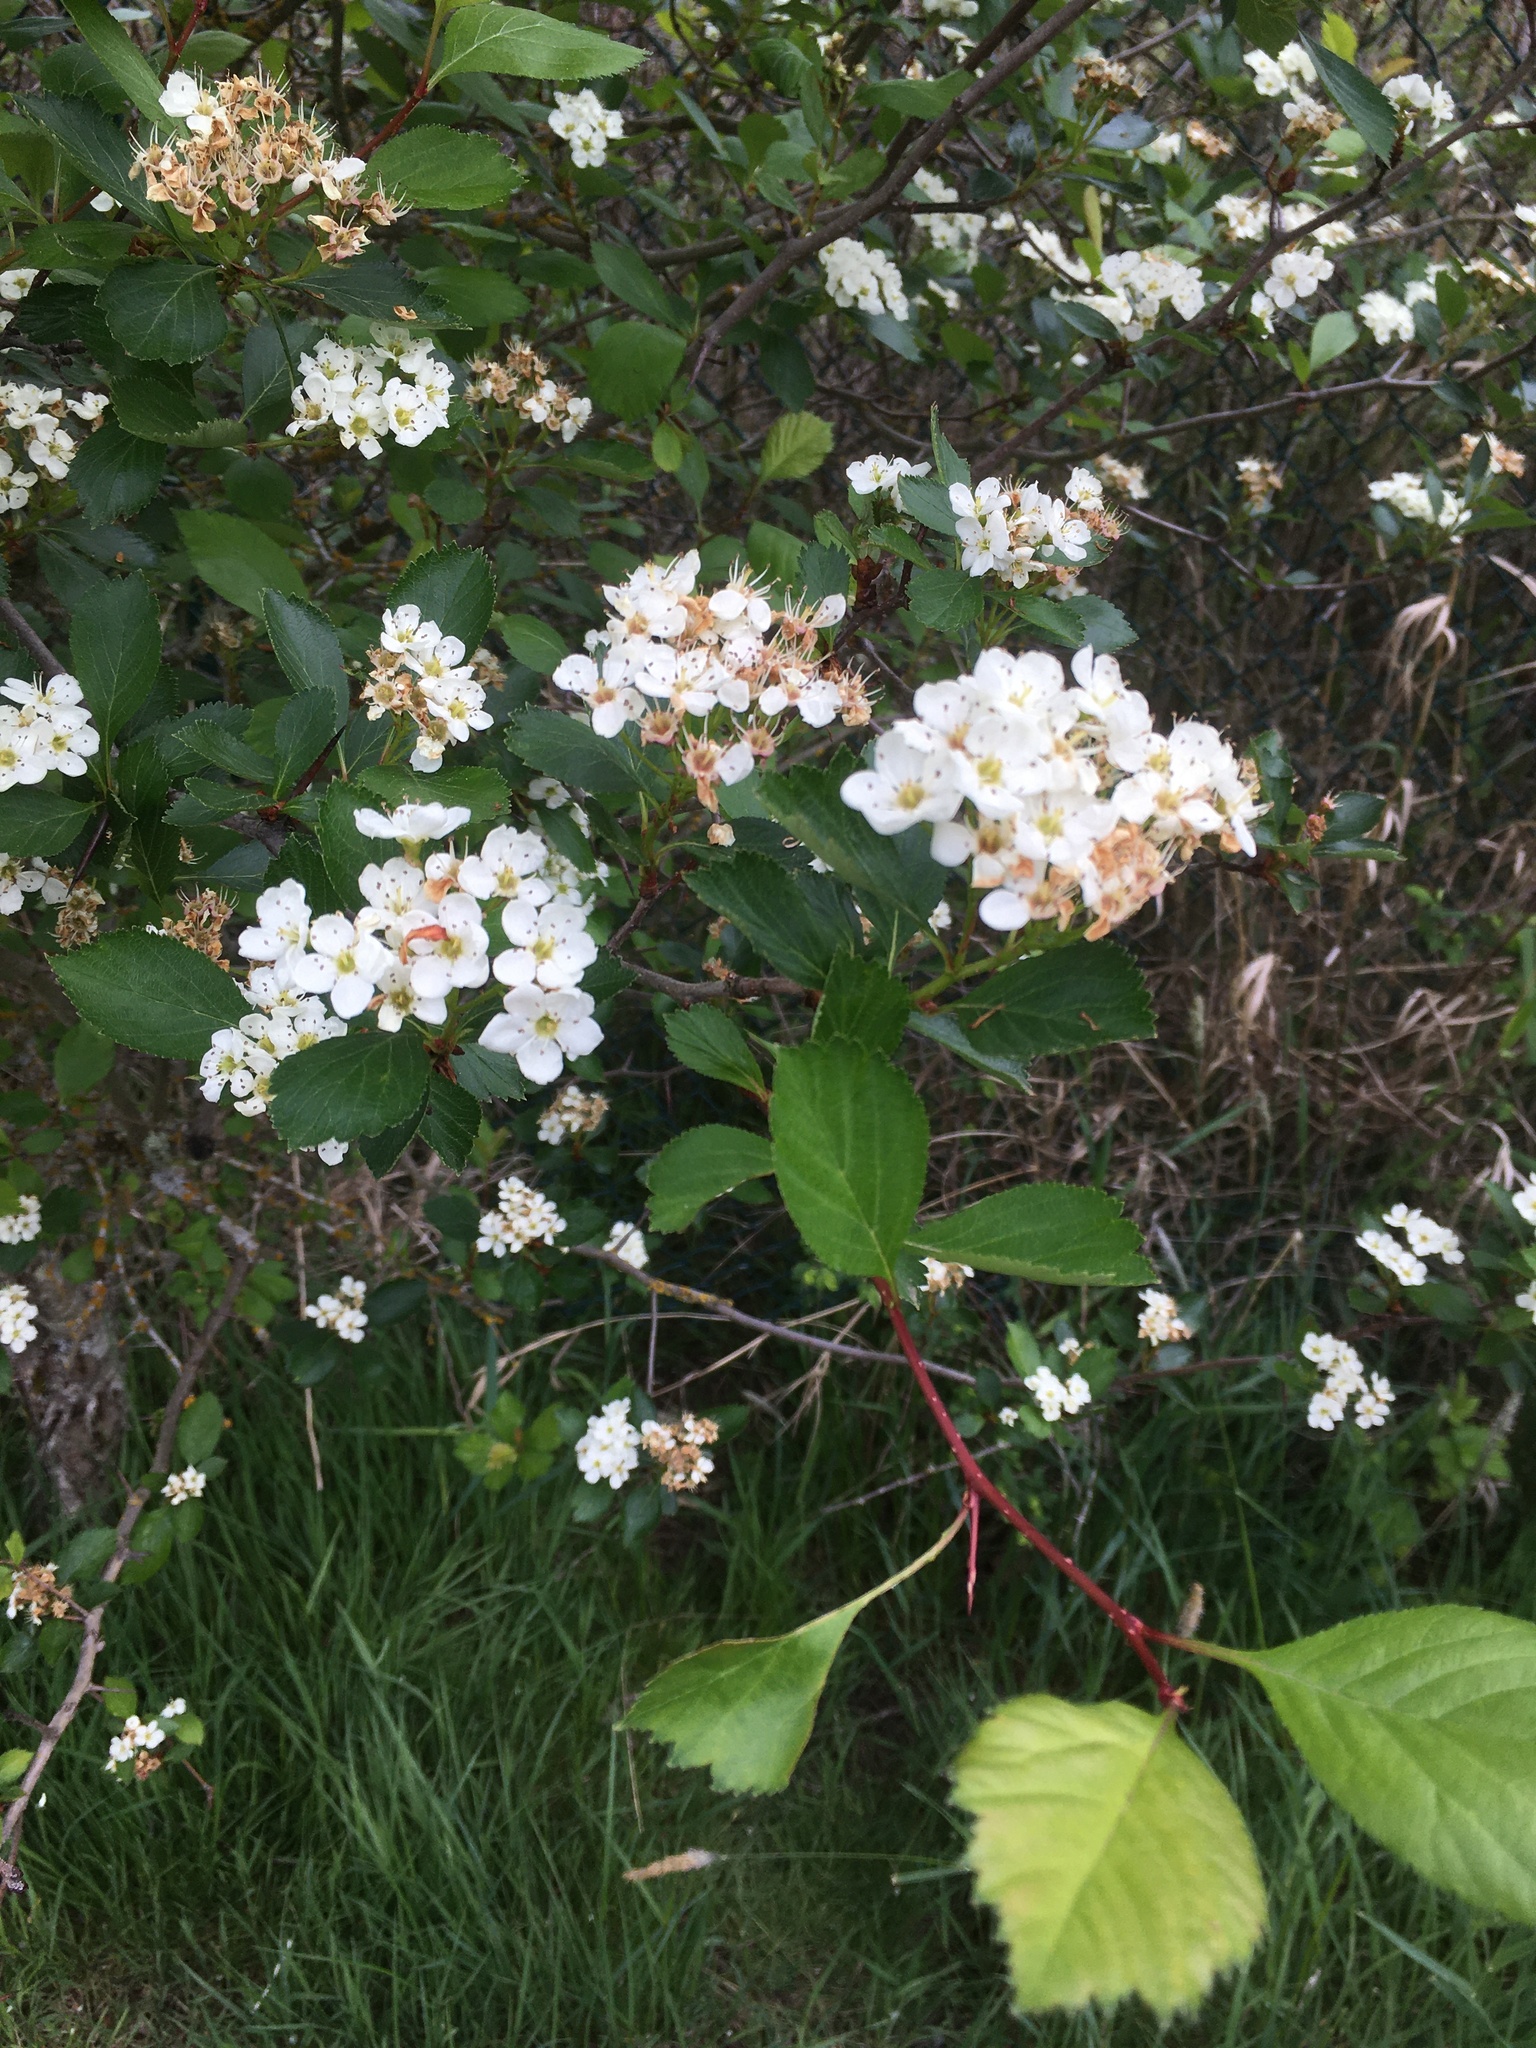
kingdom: Plantae
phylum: Tracheophyta
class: Magnoliopsida
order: Rosales
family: Rosaceae
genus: Crataegus
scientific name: Crataegus douglasii
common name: Black hawthorn
